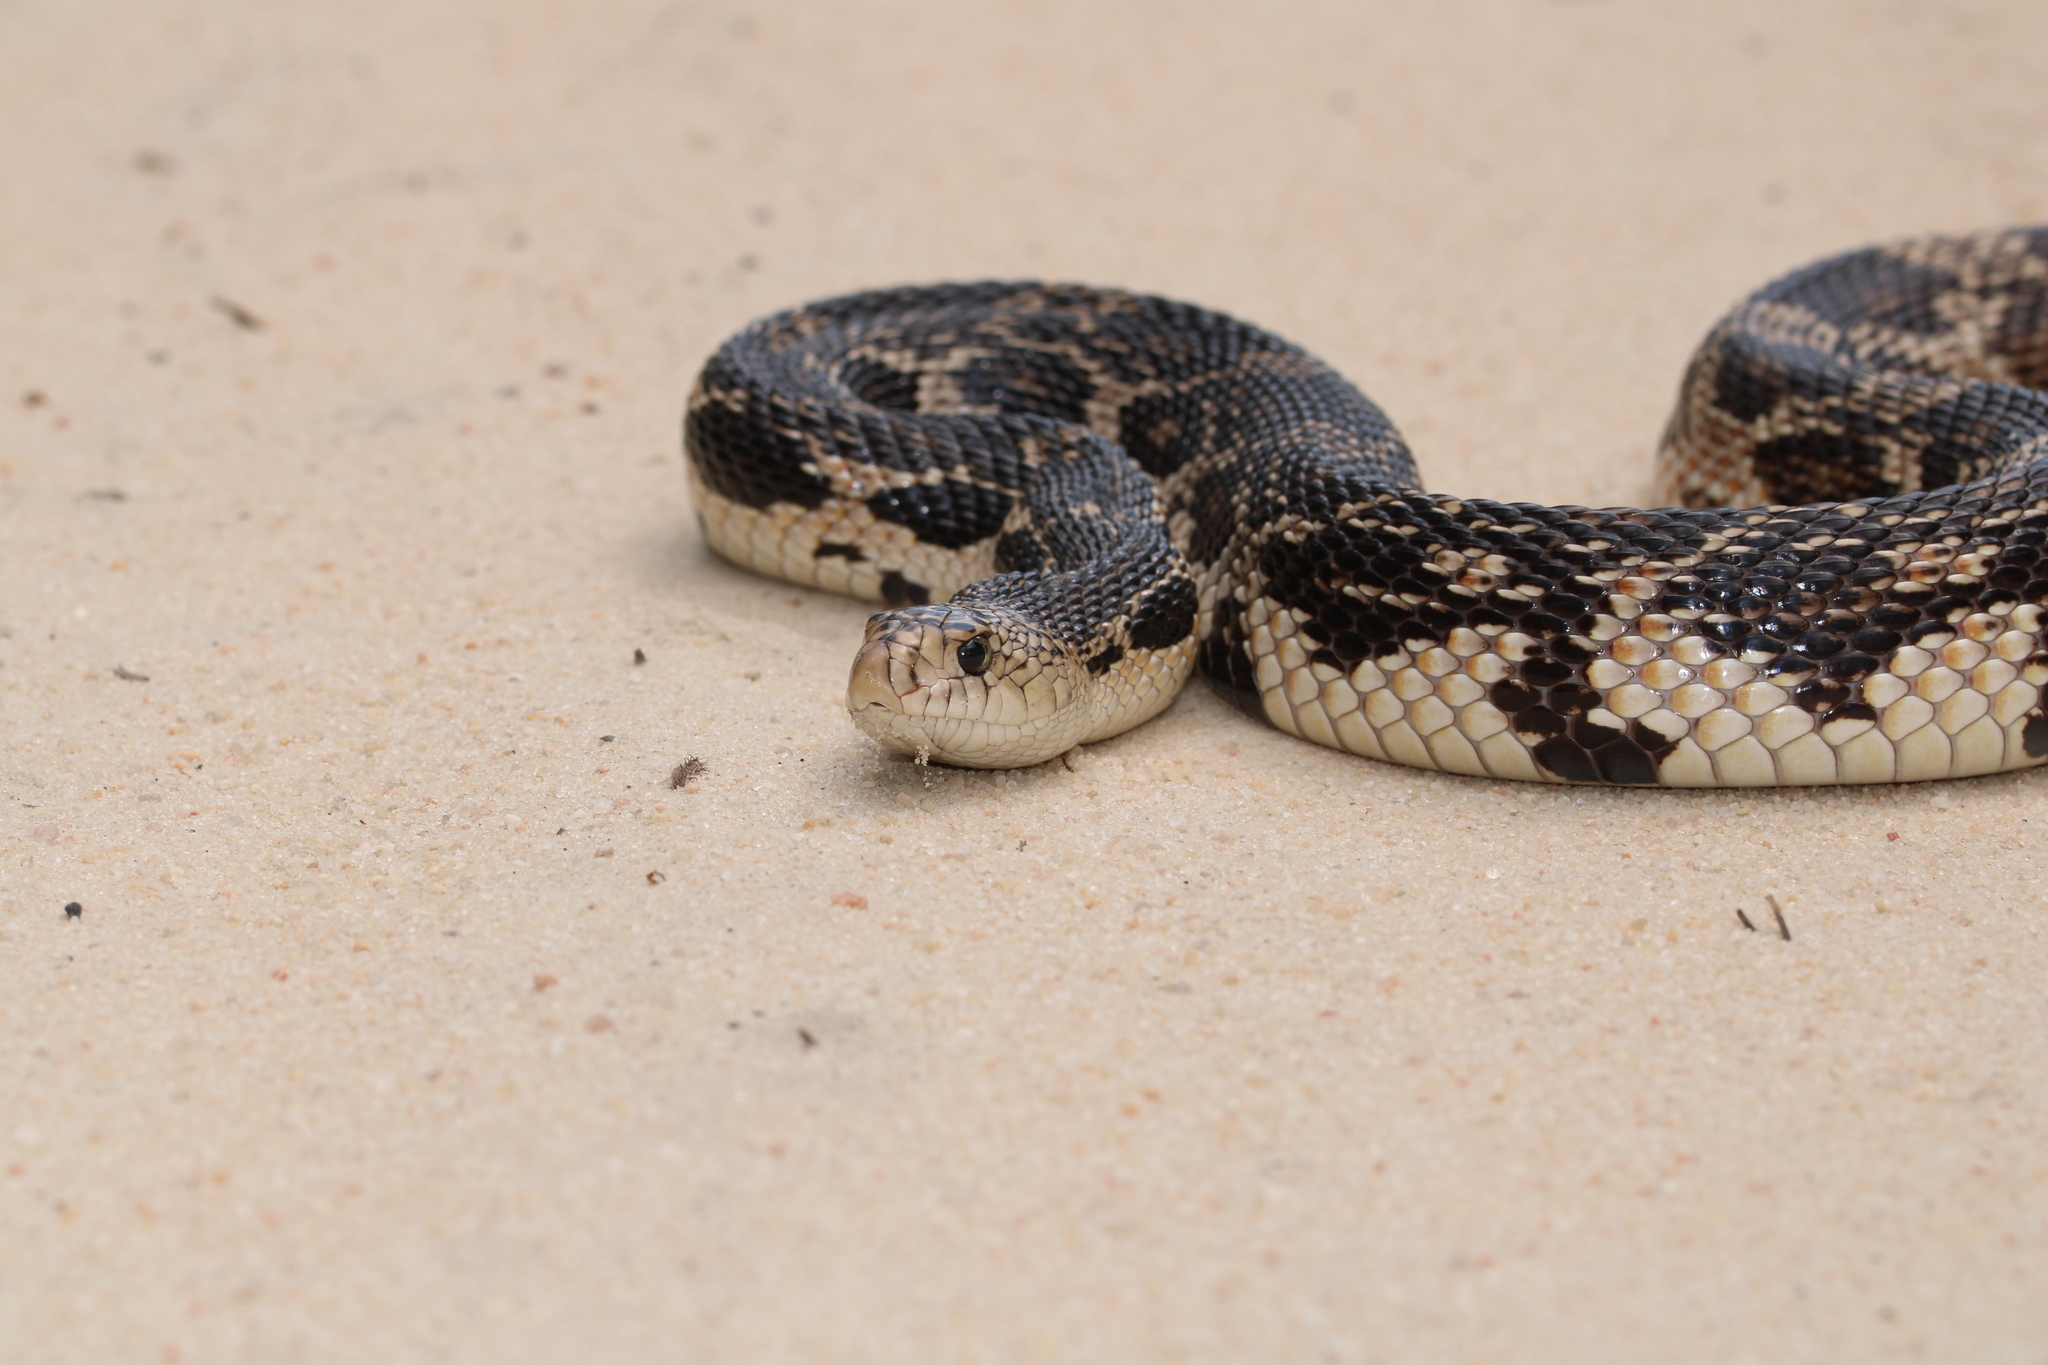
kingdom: Animalia
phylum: Chordata
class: Squamata
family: Colubridae
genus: Pituophis
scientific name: Pituophis melanoleucus
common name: Pine snake
